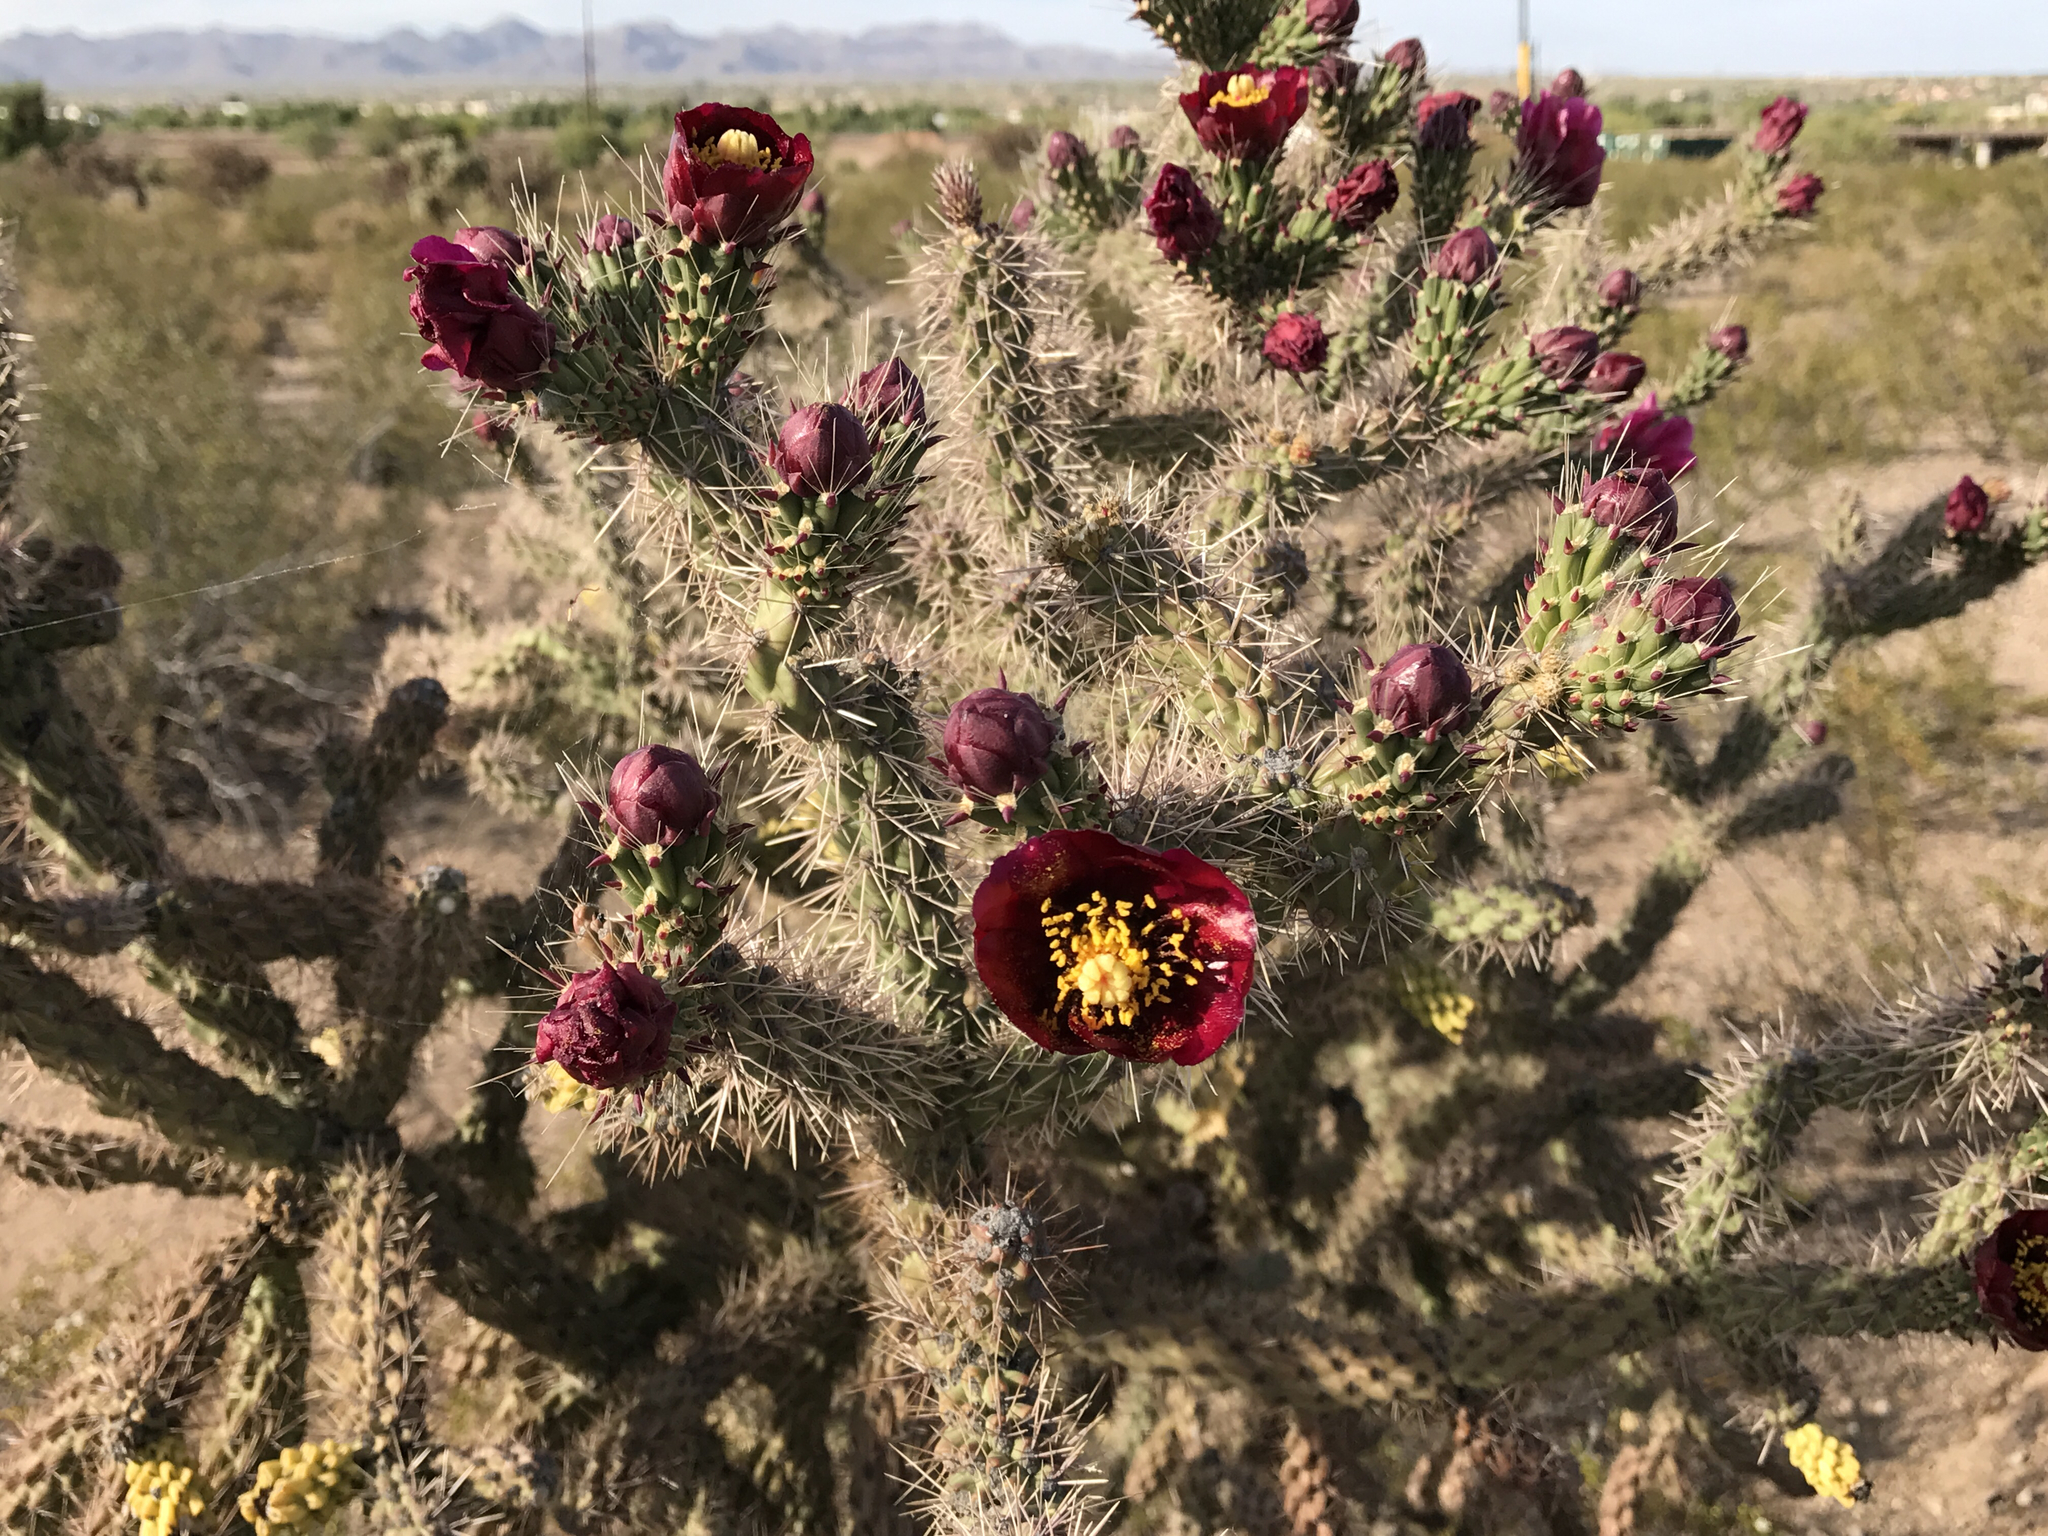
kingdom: Plantae
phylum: Tracheophyta
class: Magnoliopsida
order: Caryophyllales
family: Cactaceae
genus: Cylindropuntia
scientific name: Cylindropuntia acanthocarpa
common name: Buckhorn cholla
